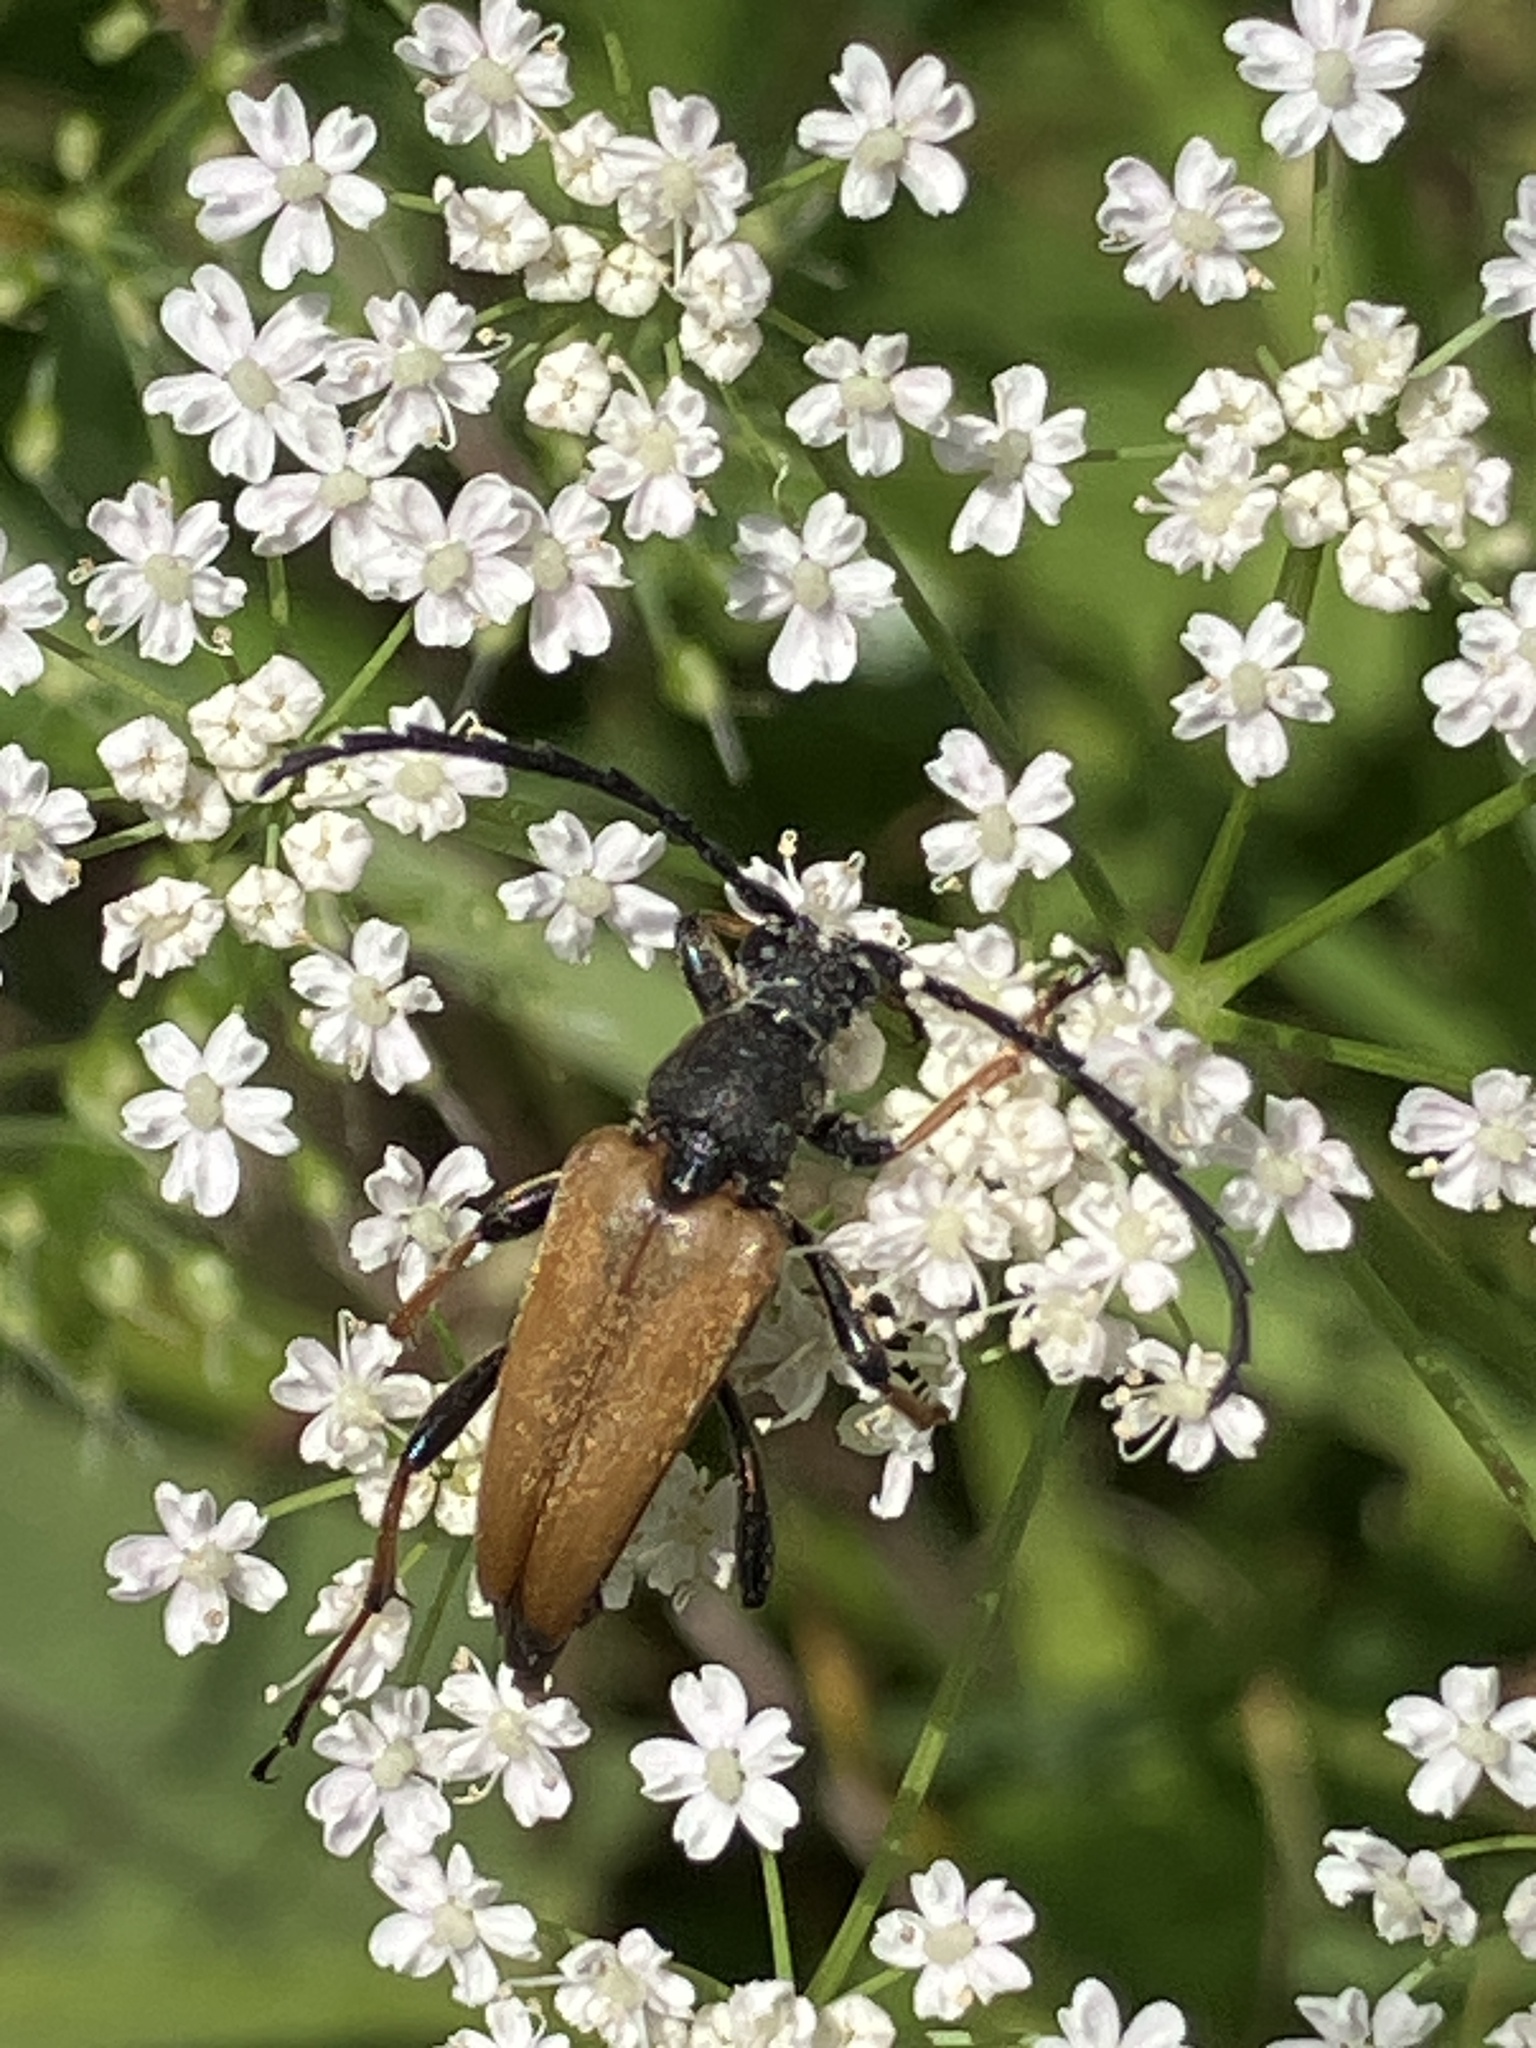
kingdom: Animalia
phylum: Arthropoda
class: Insecta
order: Coleoptera
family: Cerambycidae
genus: Stictoleptura
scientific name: Stictoleptura rubra
